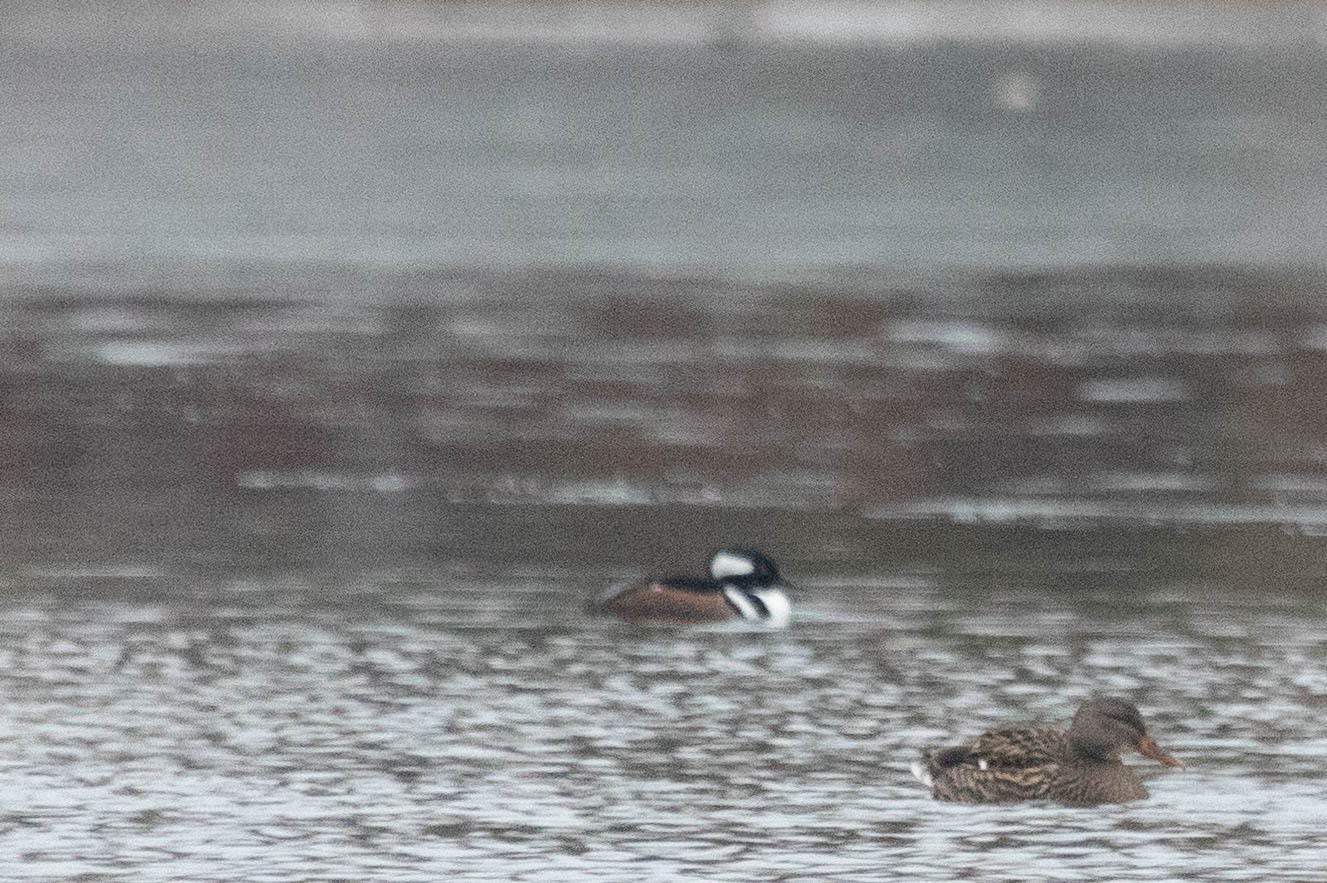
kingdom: Animalia
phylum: Chordata
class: Aves
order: Anseriformes
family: Anatidae
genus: Lophodytes
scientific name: Lophodytes cucullatus
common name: Hooded merganser
